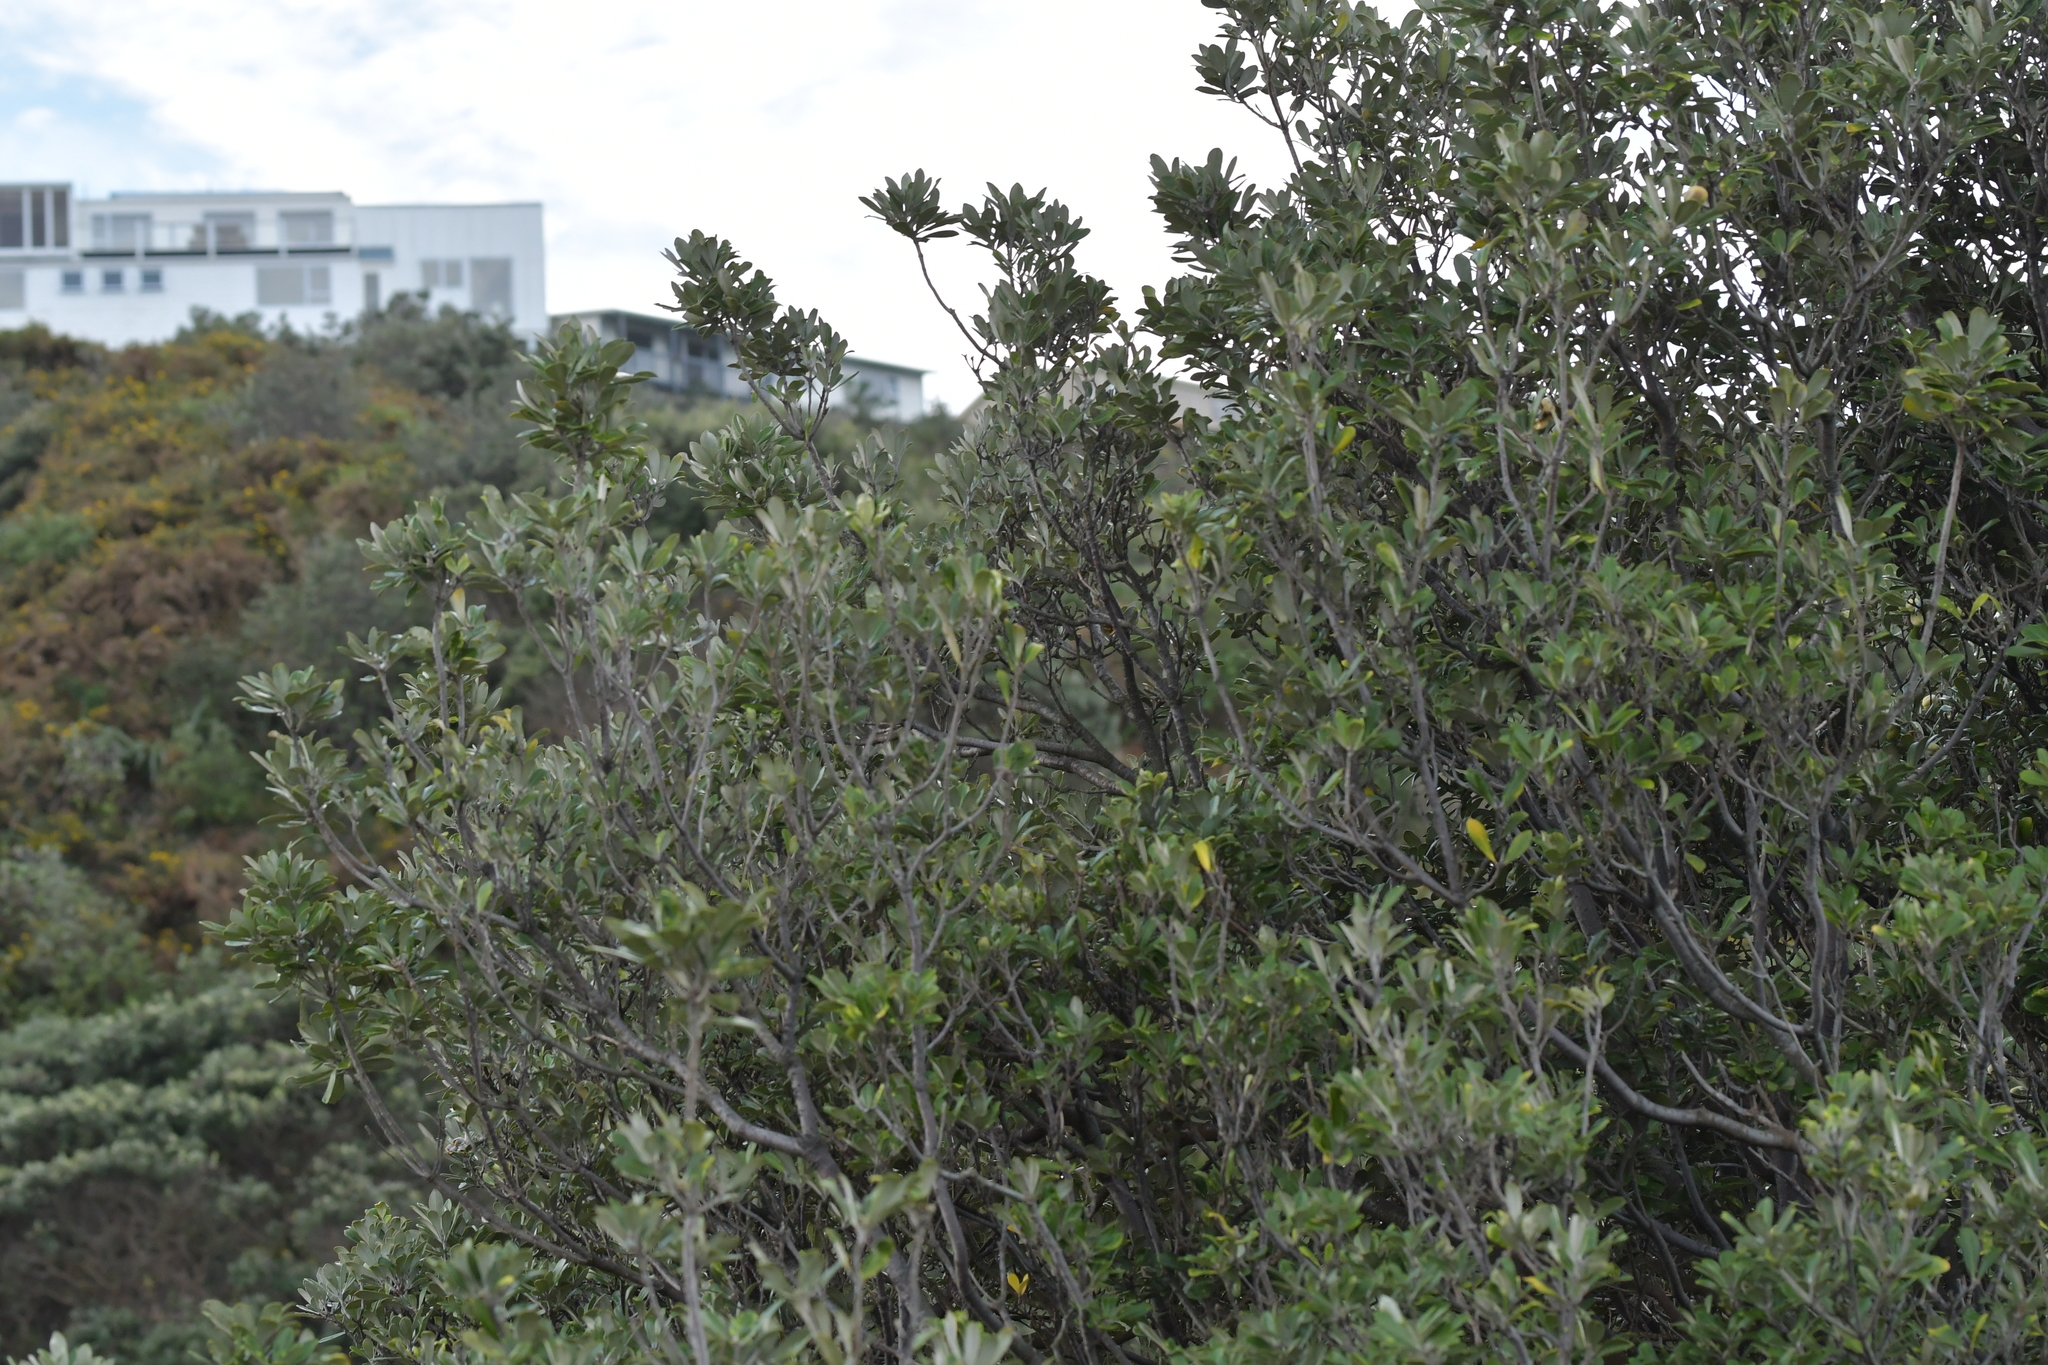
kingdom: Plantae
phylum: Tracheophyta
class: Magnoliopsida
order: Apiales
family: Pittosporaceae
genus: Pittosporum
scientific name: Pittosporum crassifolium
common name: Karo
